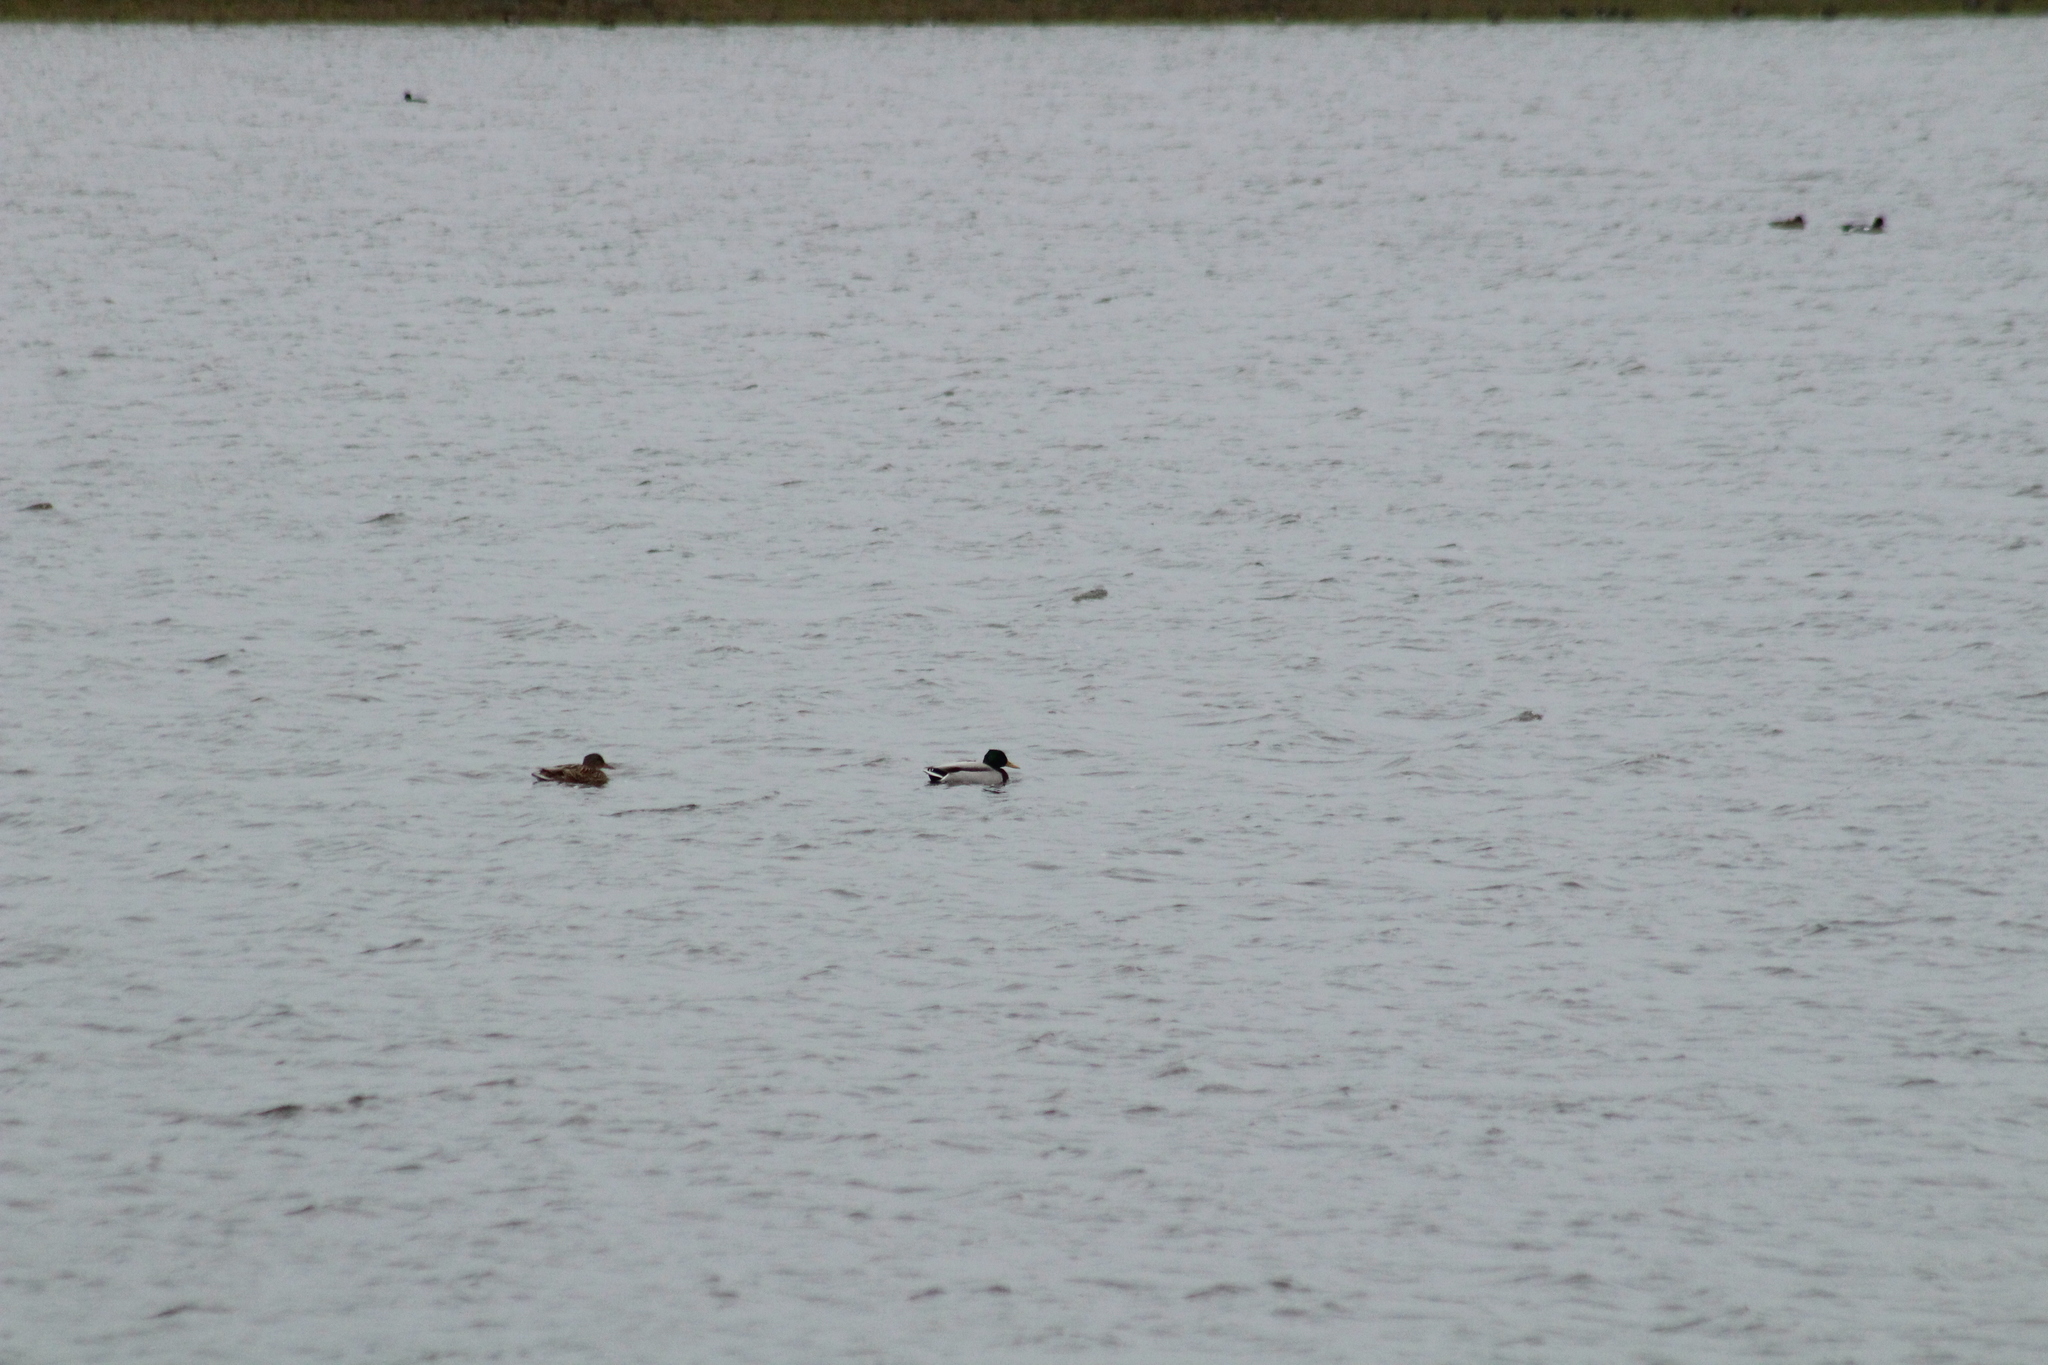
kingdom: Animalia
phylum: Chordata
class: Aves
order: Anseriformes
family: Anatidae
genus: Anas
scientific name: Anas platyrhynchos
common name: Mallard
